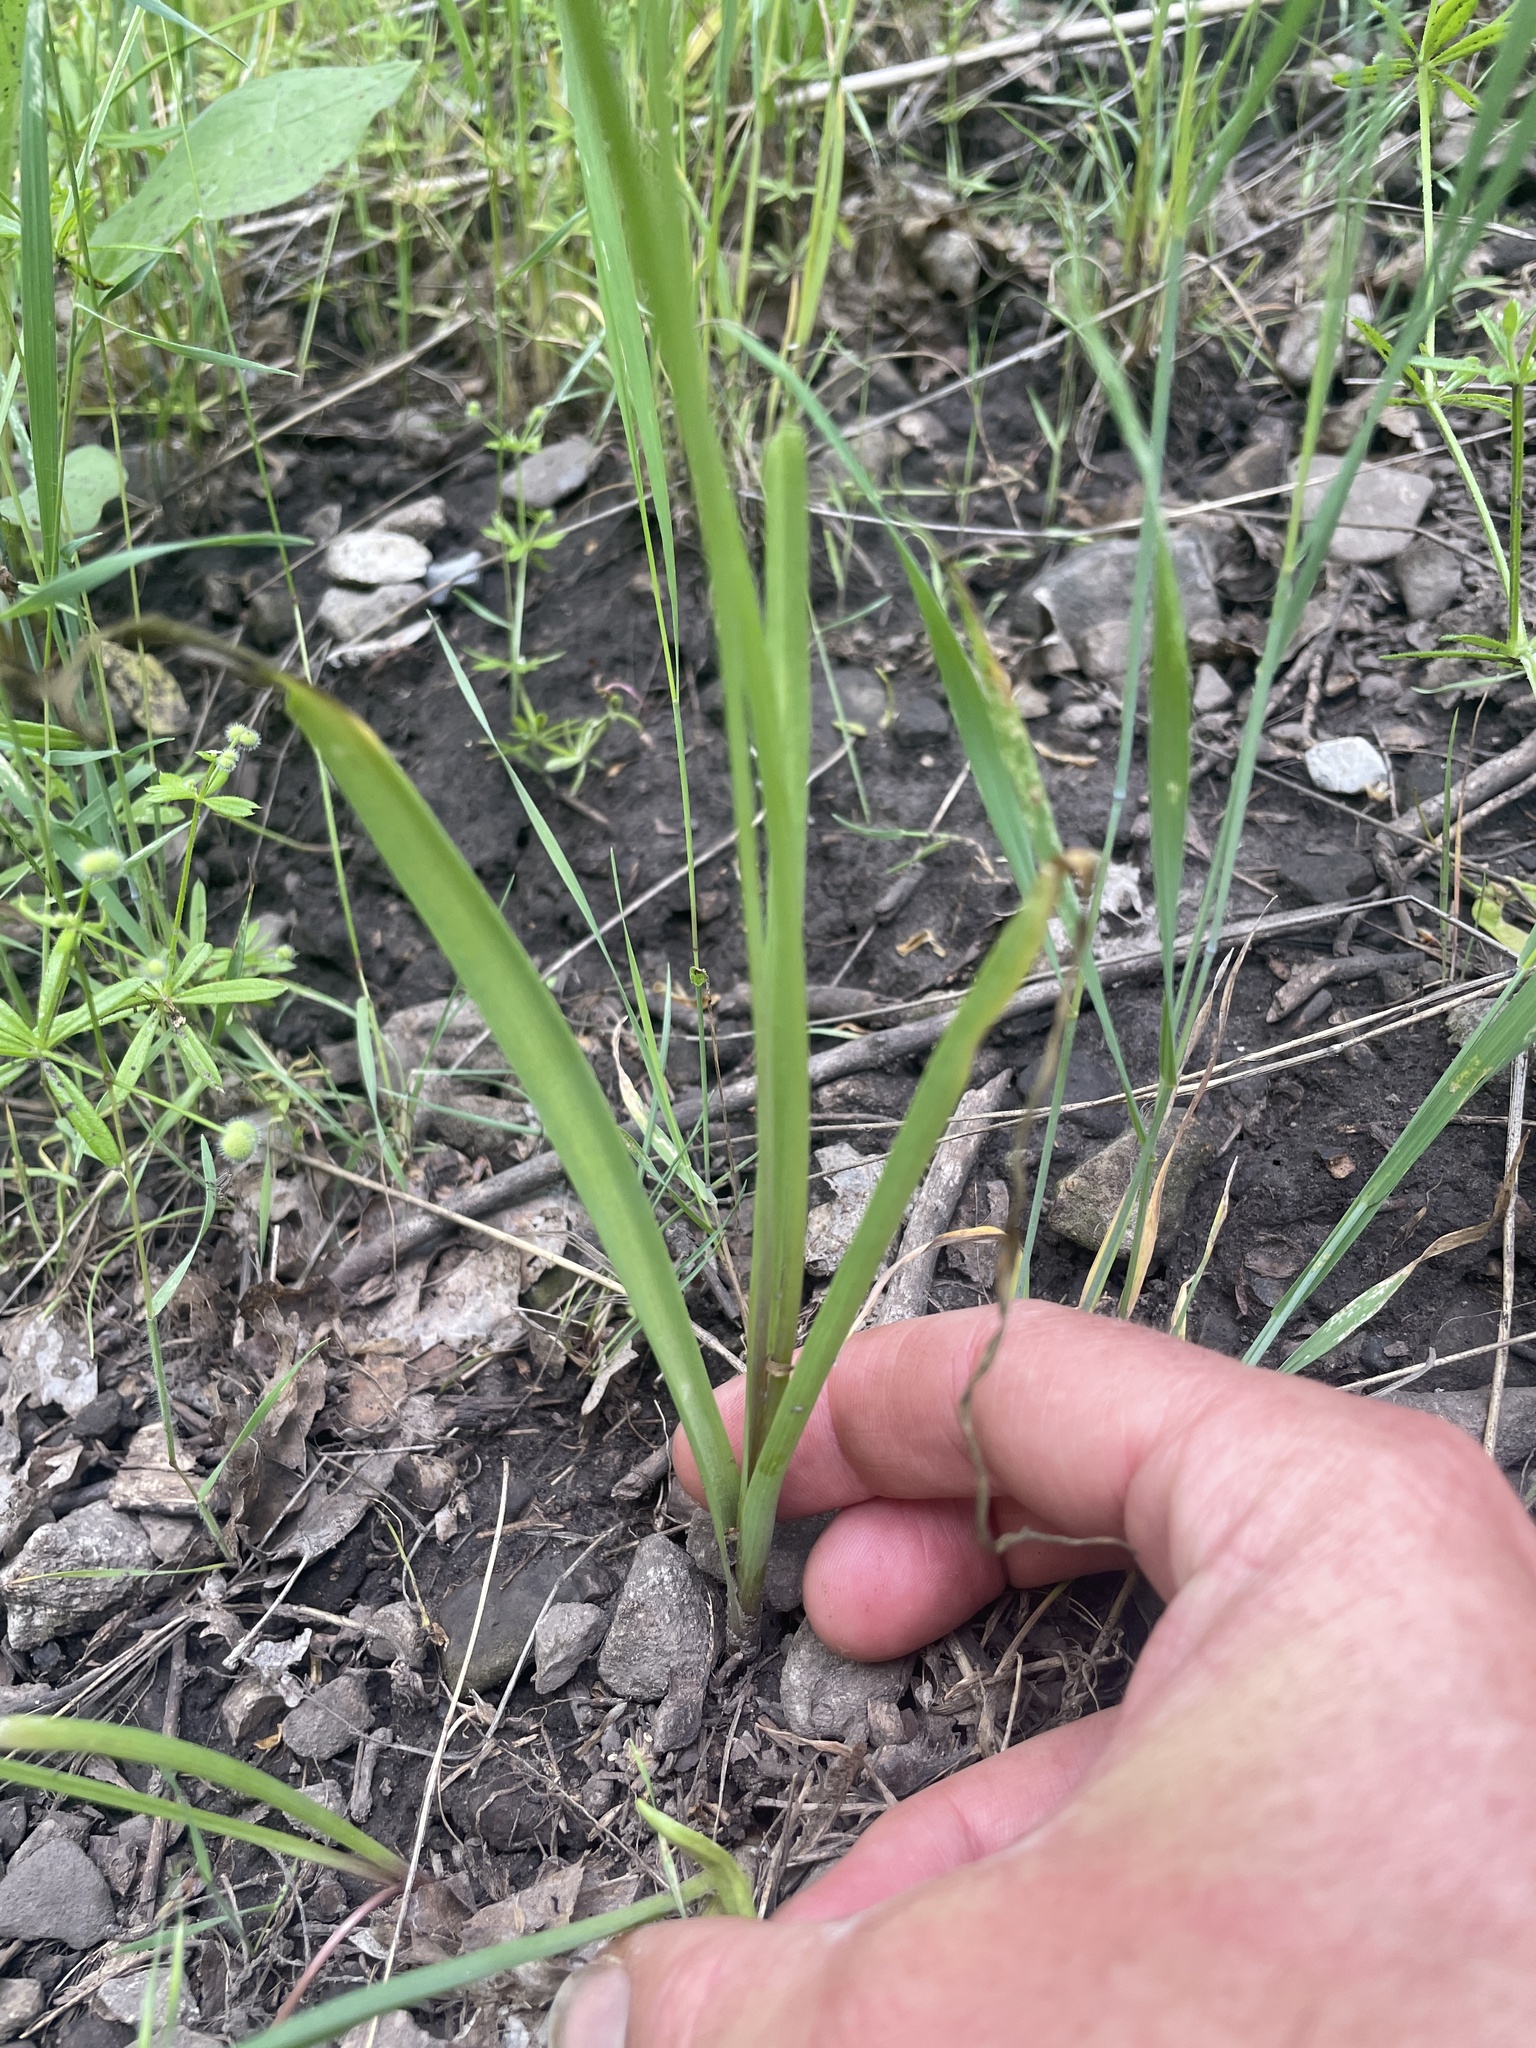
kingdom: Plantae
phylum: Tracheophyta
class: Liliopsida
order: Asparagales
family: Amaryllidaceae
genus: Allium
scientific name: Allium bisceptrum
